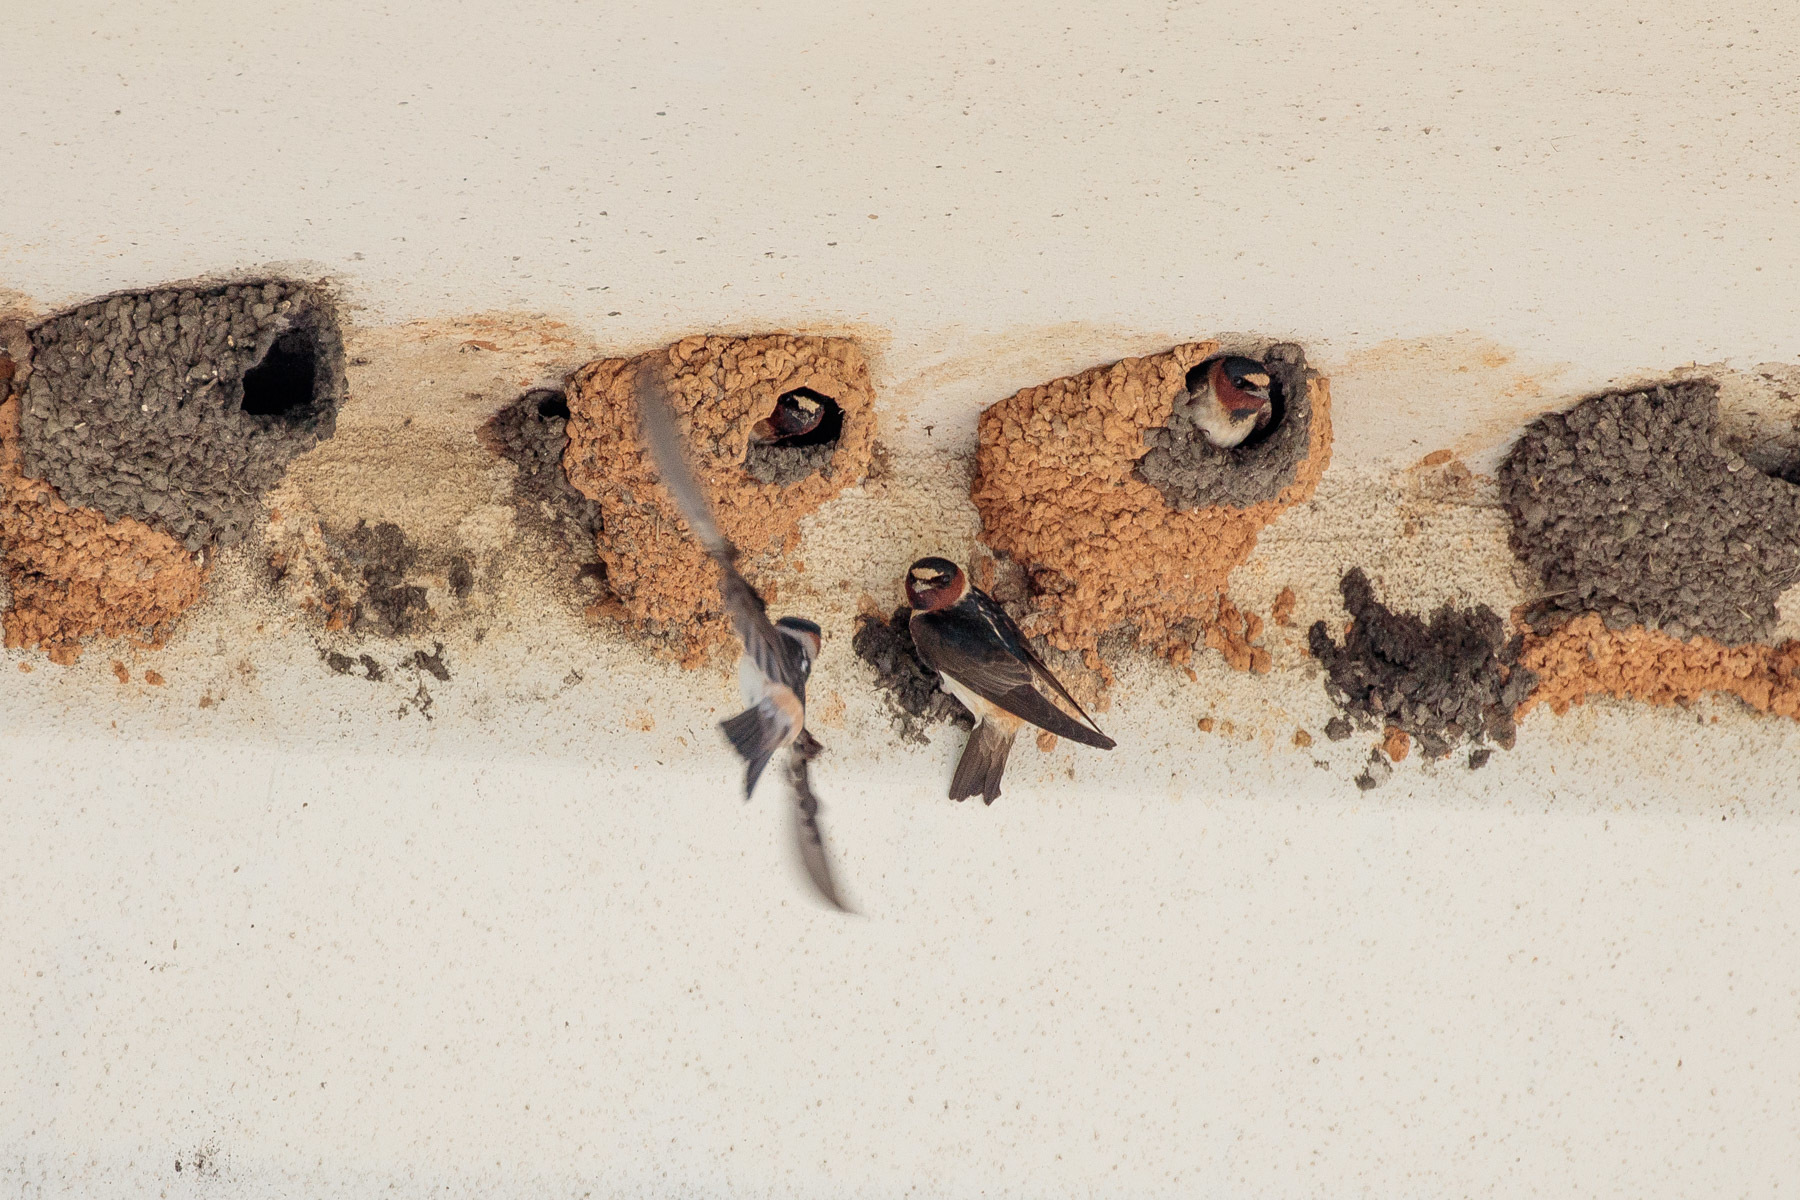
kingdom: Animalia
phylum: Chordata
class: Aves
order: Passeriformes
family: Hirundinidae
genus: Petrochelidon
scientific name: Petrochelidon pyrrhonota
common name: American cliff swallow
